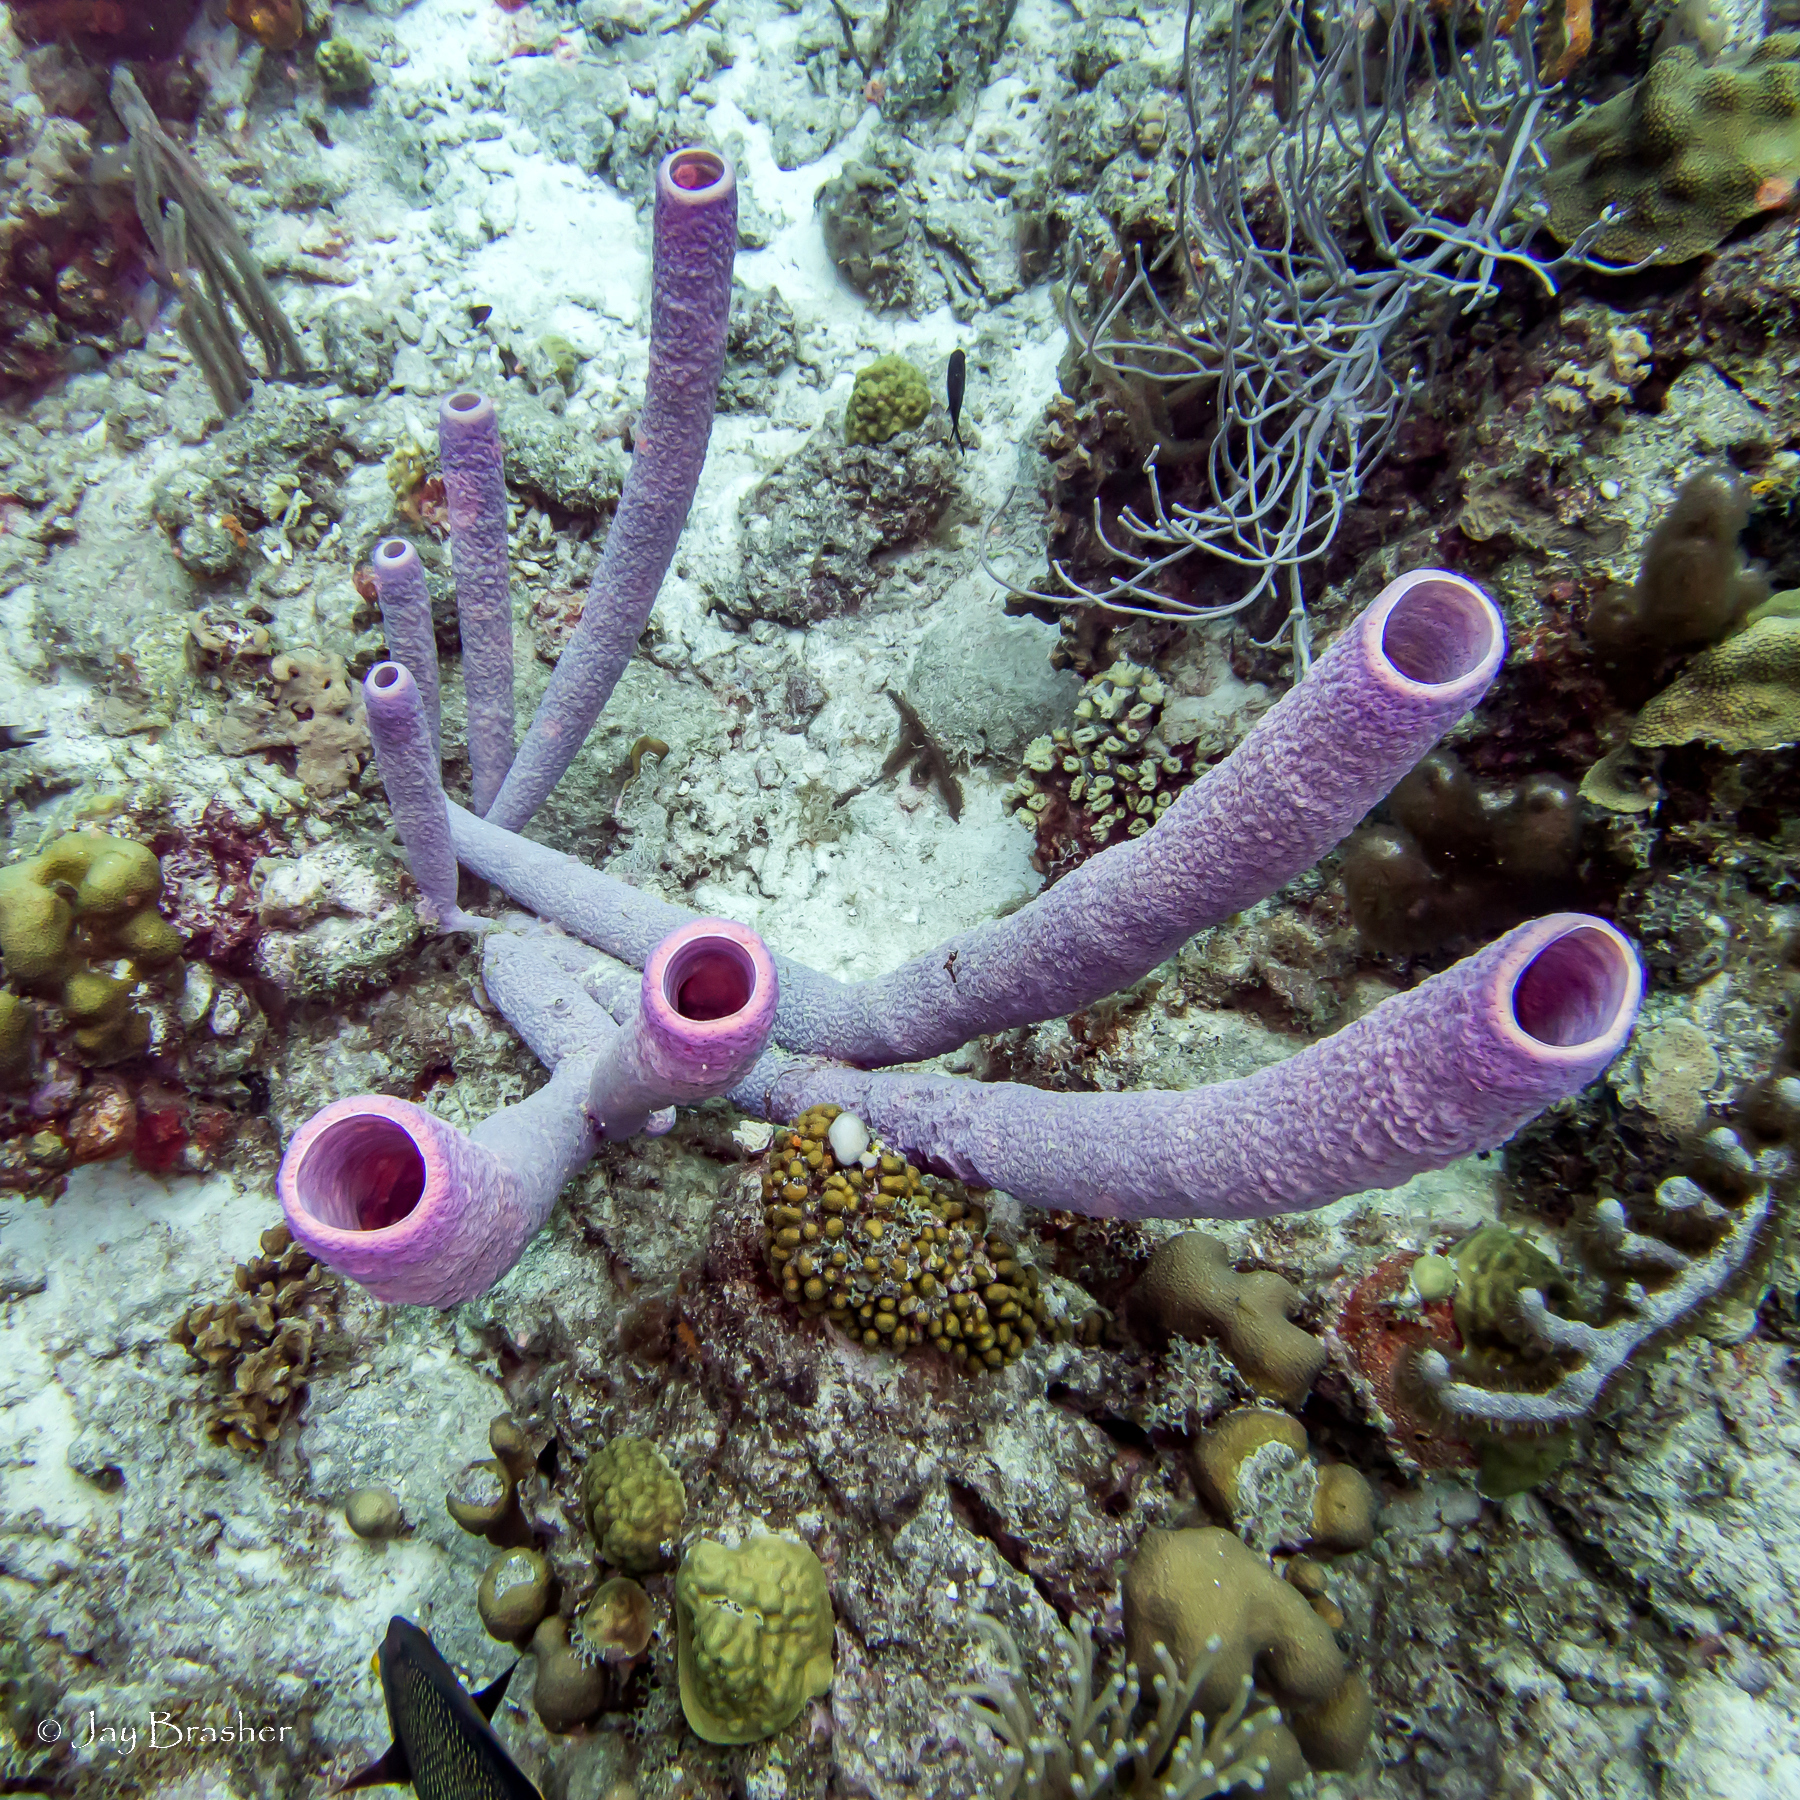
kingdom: Animalia
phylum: Porifera
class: Demospongiae
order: Verongiida
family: Aplysinidae
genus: Aplysina
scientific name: Aplysina archeri
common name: Stove-pipe sponge
